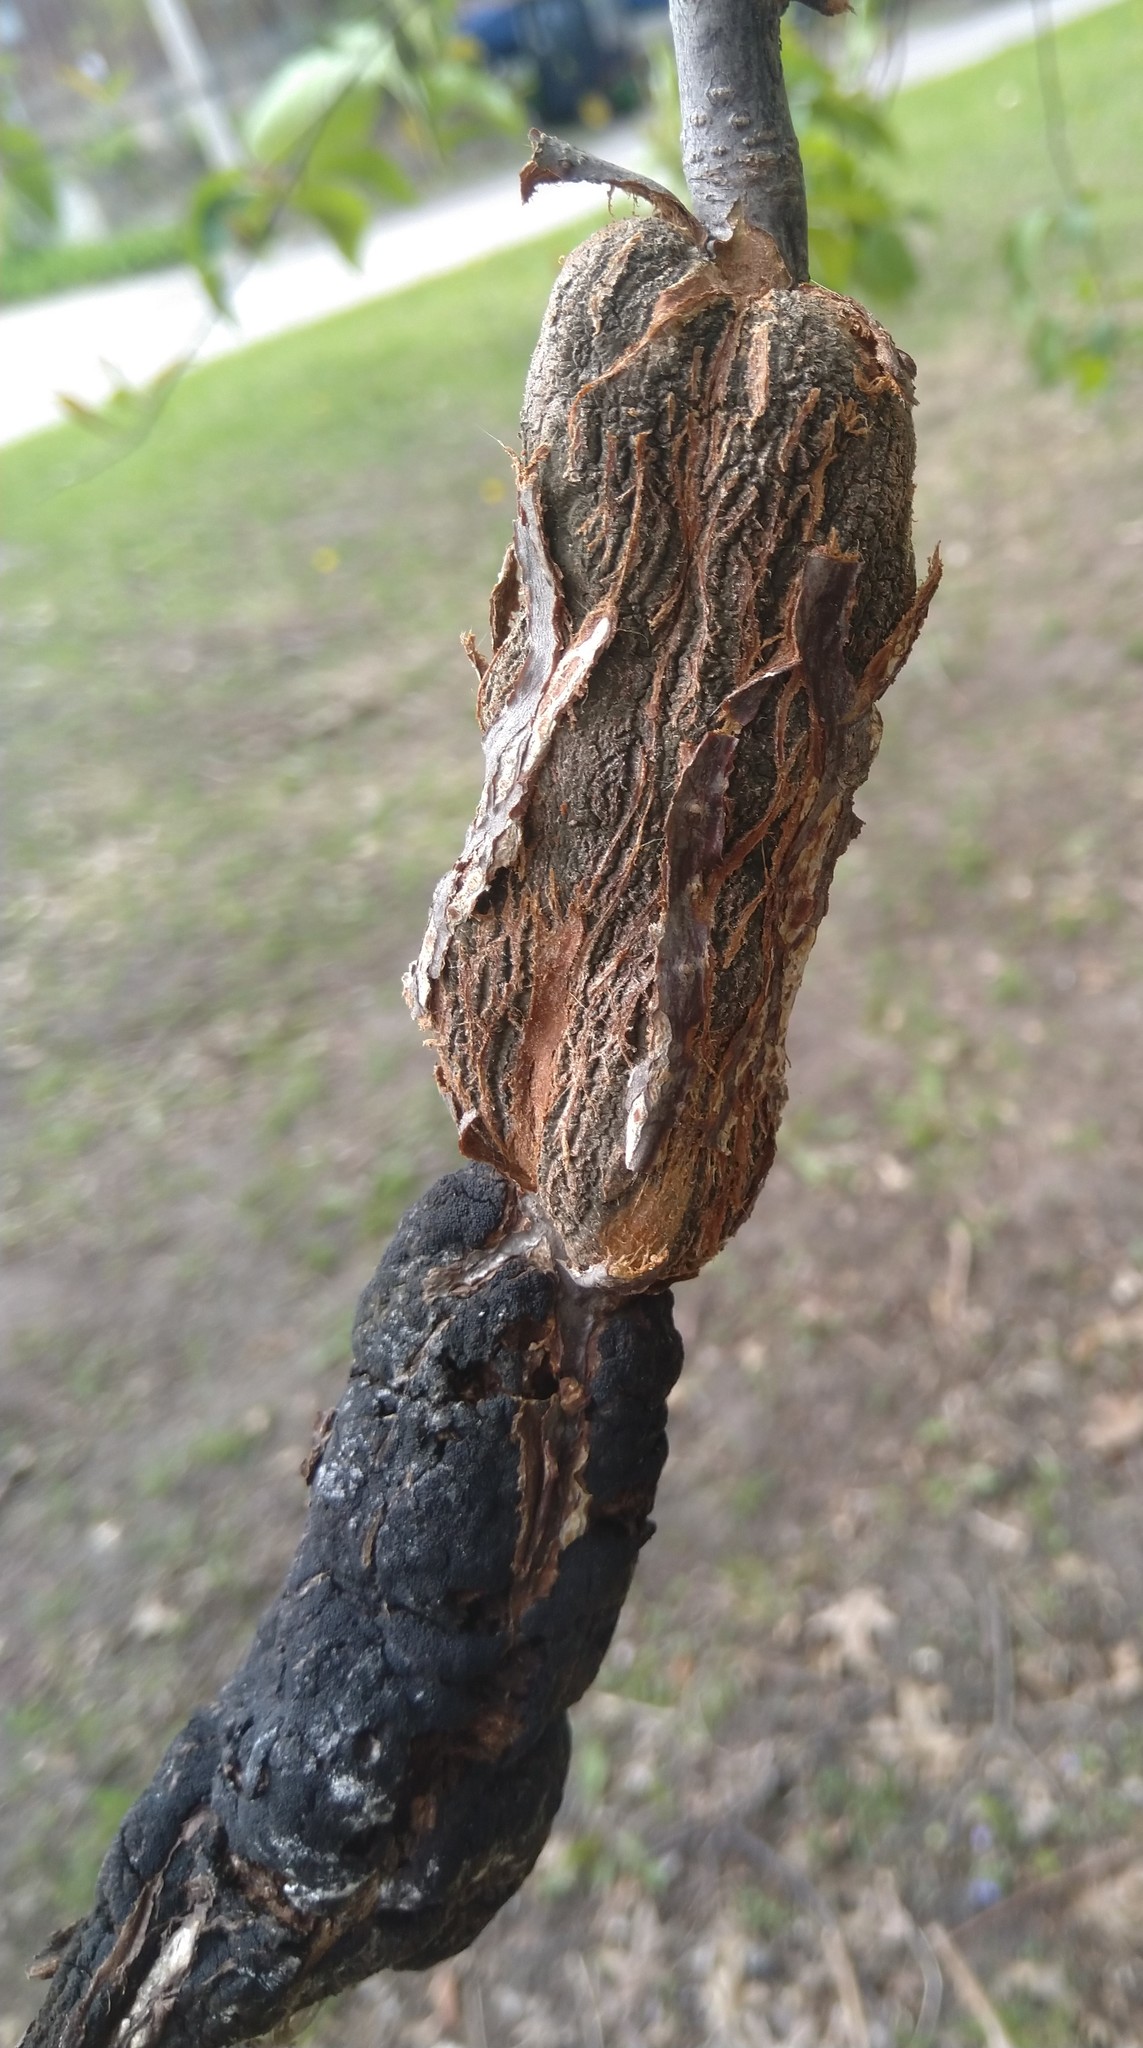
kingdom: Fungi
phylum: Ascomycota
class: Dothideomycetes
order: Venturiales
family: Venturiaceae
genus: Apiosporina
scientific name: Apiosporina morbosa
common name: Black knot
